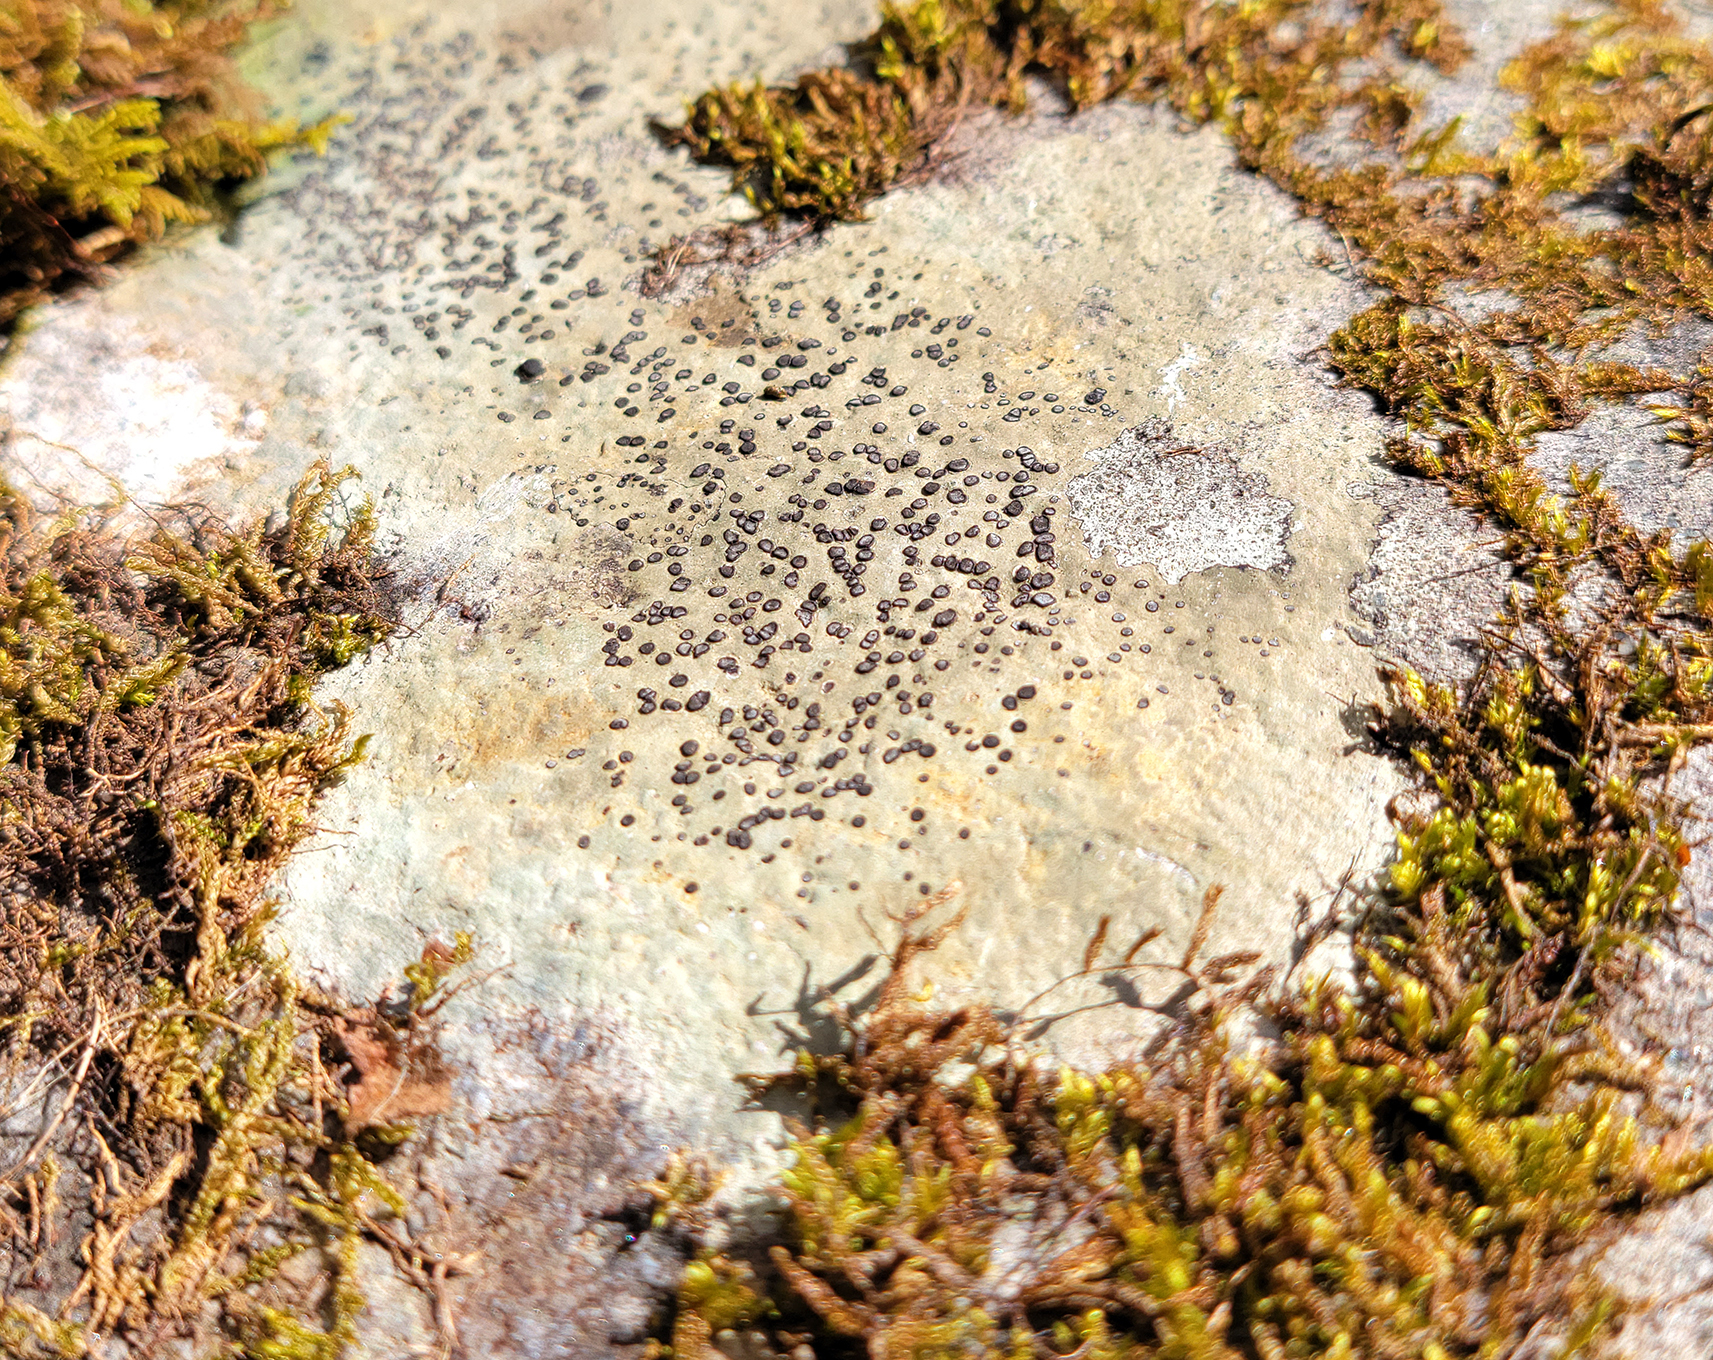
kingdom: Fungi
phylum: Ascomycota
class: Lecanoromycetes
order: Lecideales
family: Lecideaceae
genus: Porpidia
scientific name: Porpidia albocaerulescens
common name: Smokey-eyed boulder lichen
